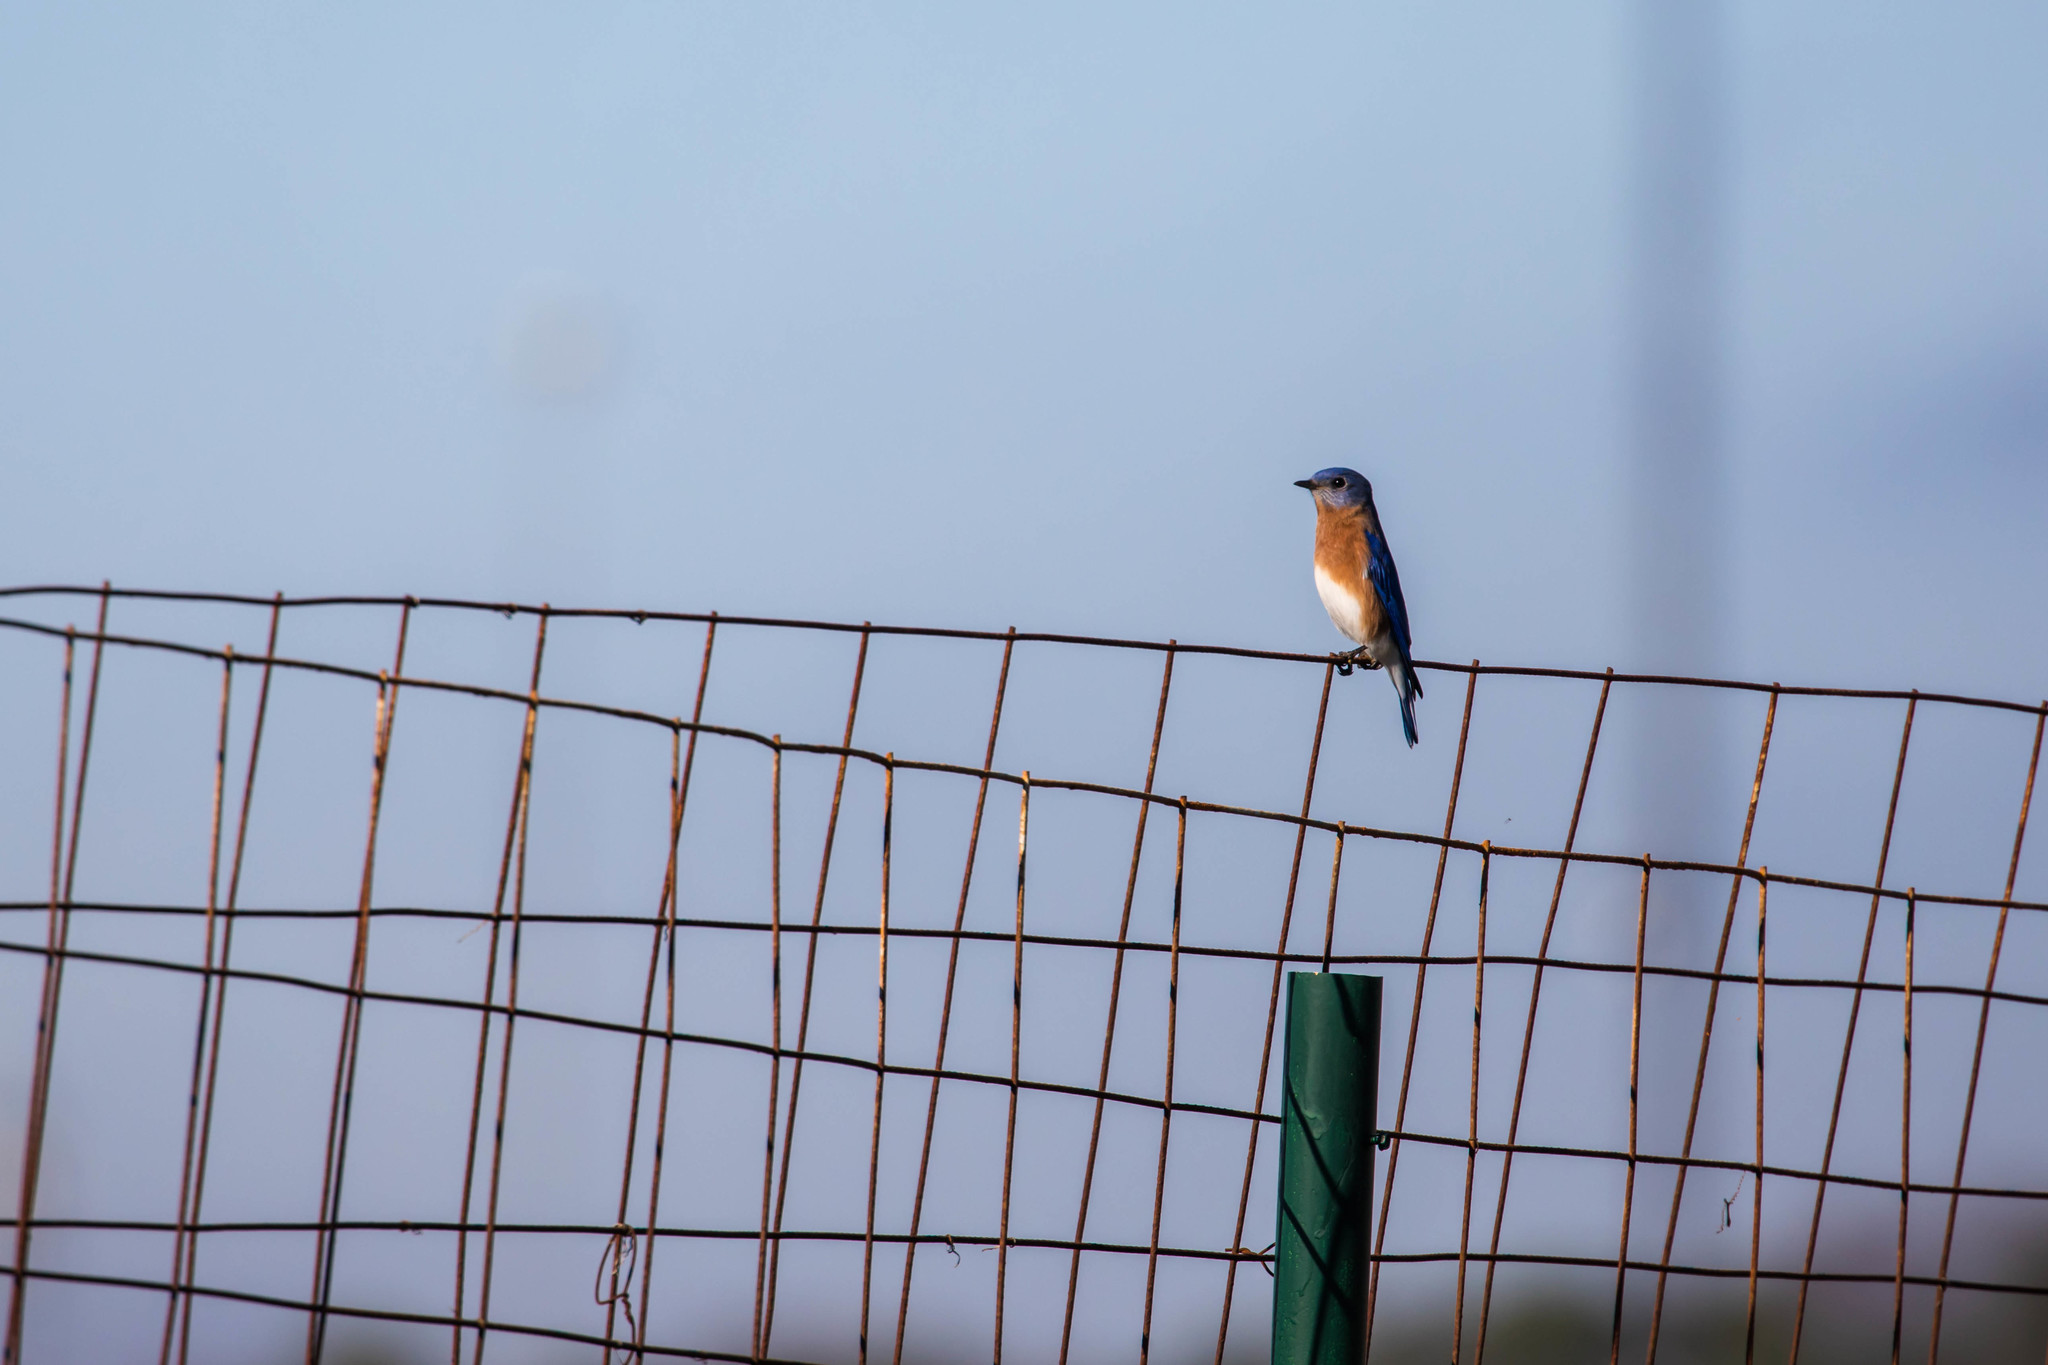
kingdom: Animalia
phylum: Chordata
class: Aves
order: Passeriformes
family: Turdidae
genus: Sialia
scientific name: Sialia sialis
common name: Eastern bluebird
